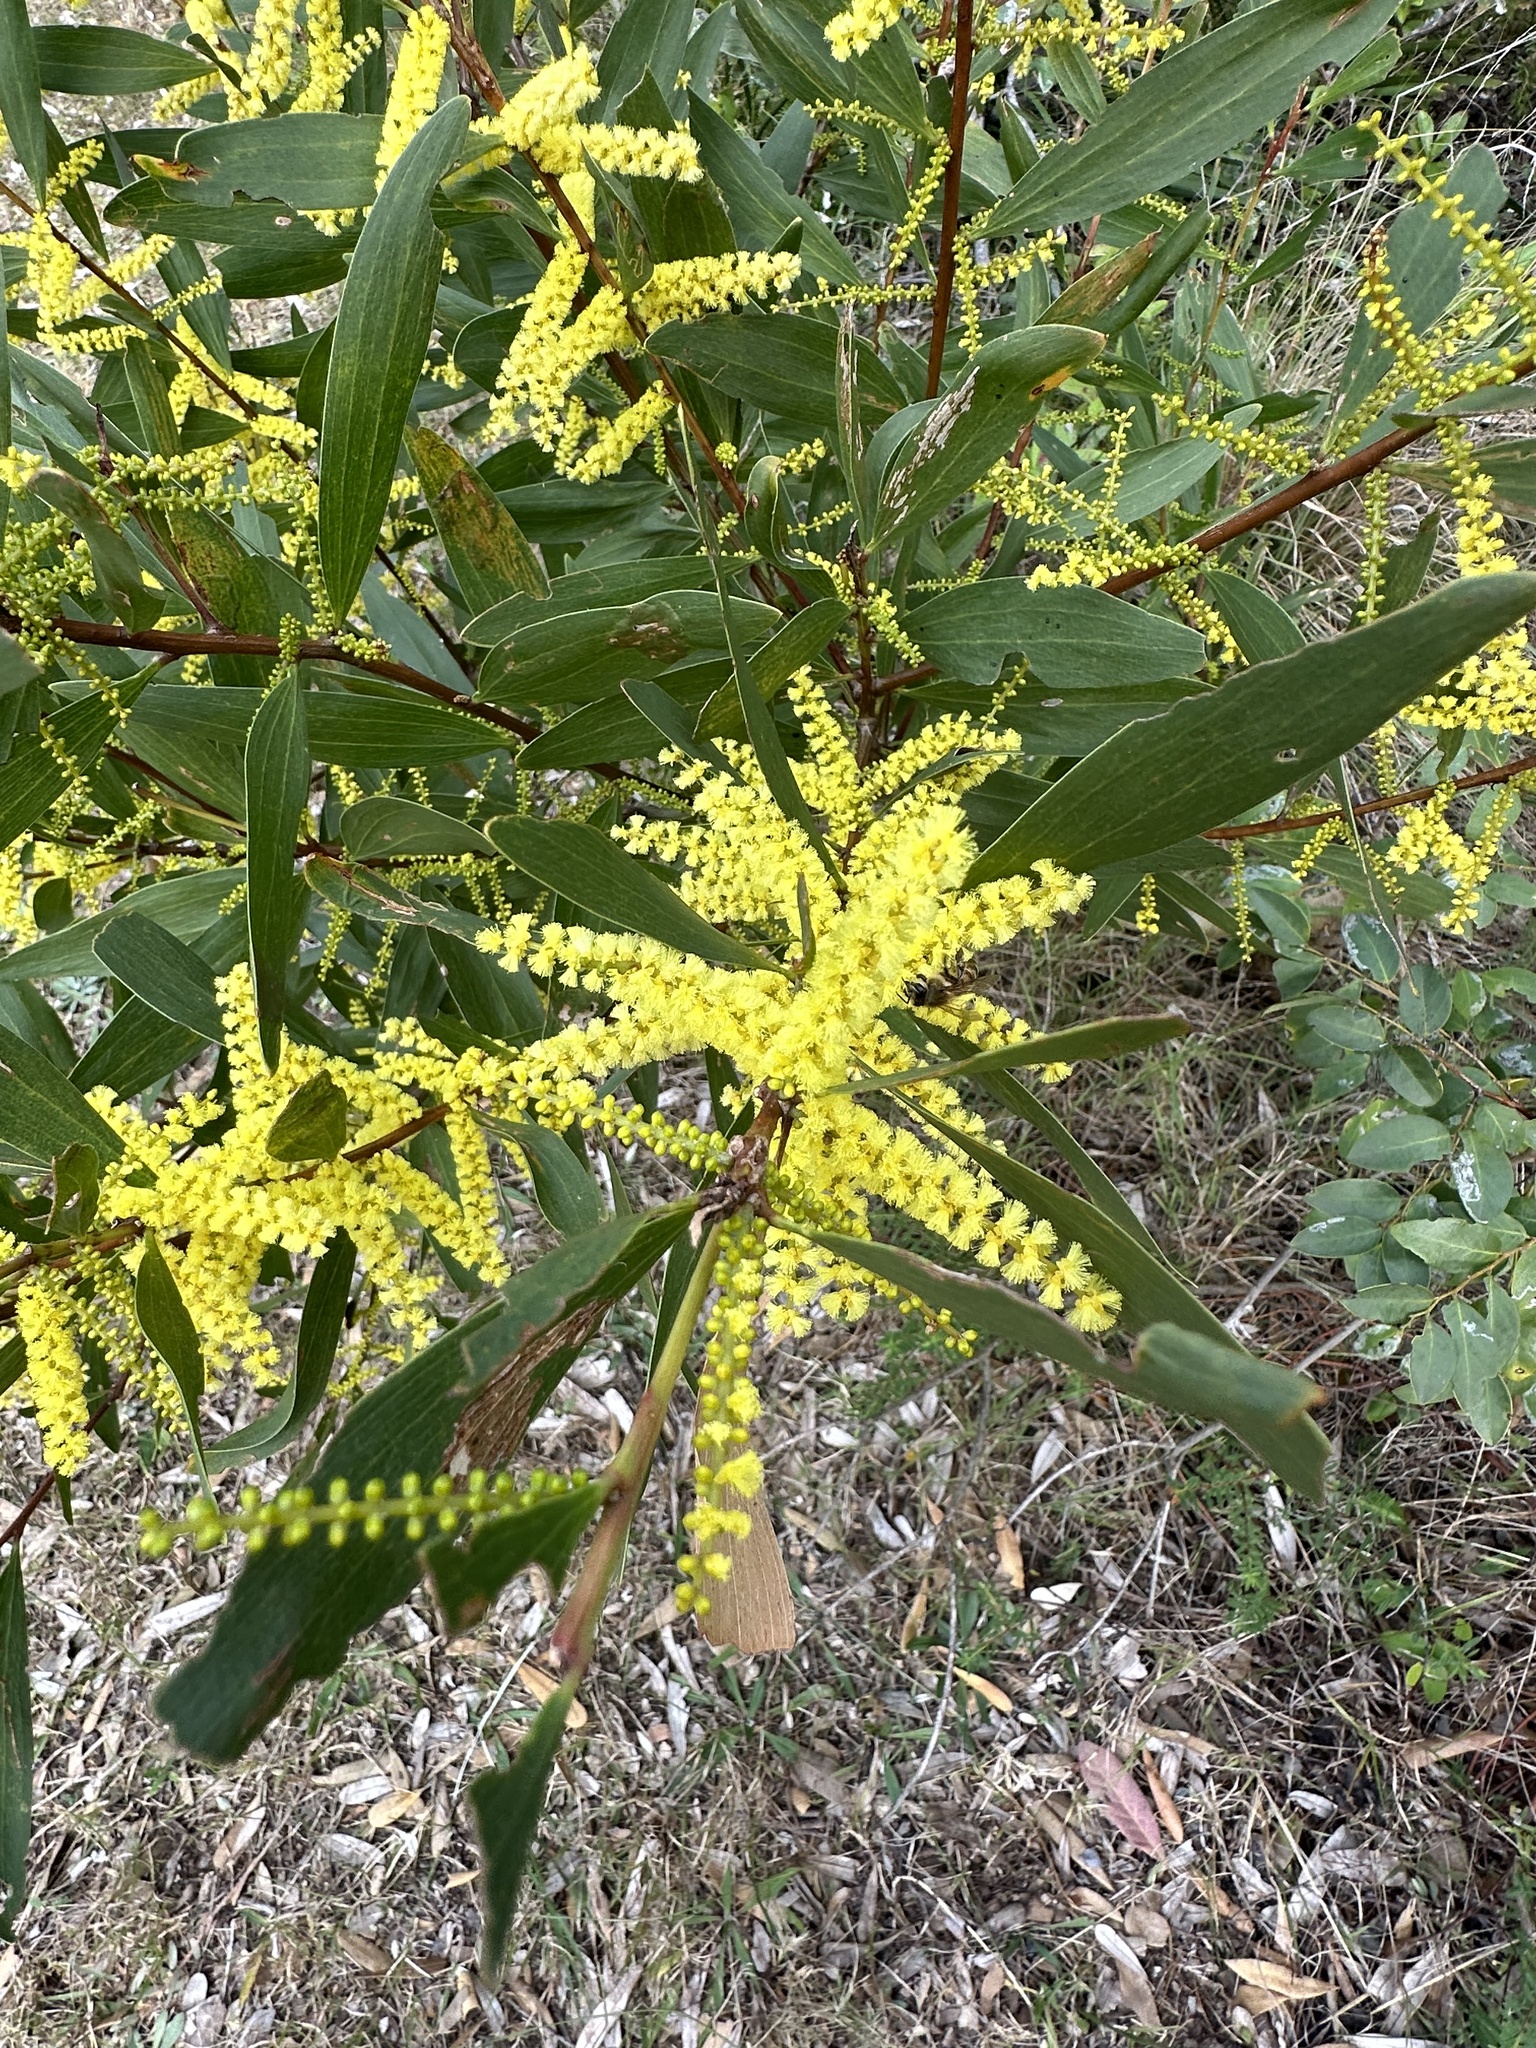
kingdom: Plantae
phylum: Tracheophyta
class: Magnoliopsida
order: Fabales
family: Fabaceae
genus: Acacia
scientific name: Acacia longifolia
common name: Sydney golden wattle
